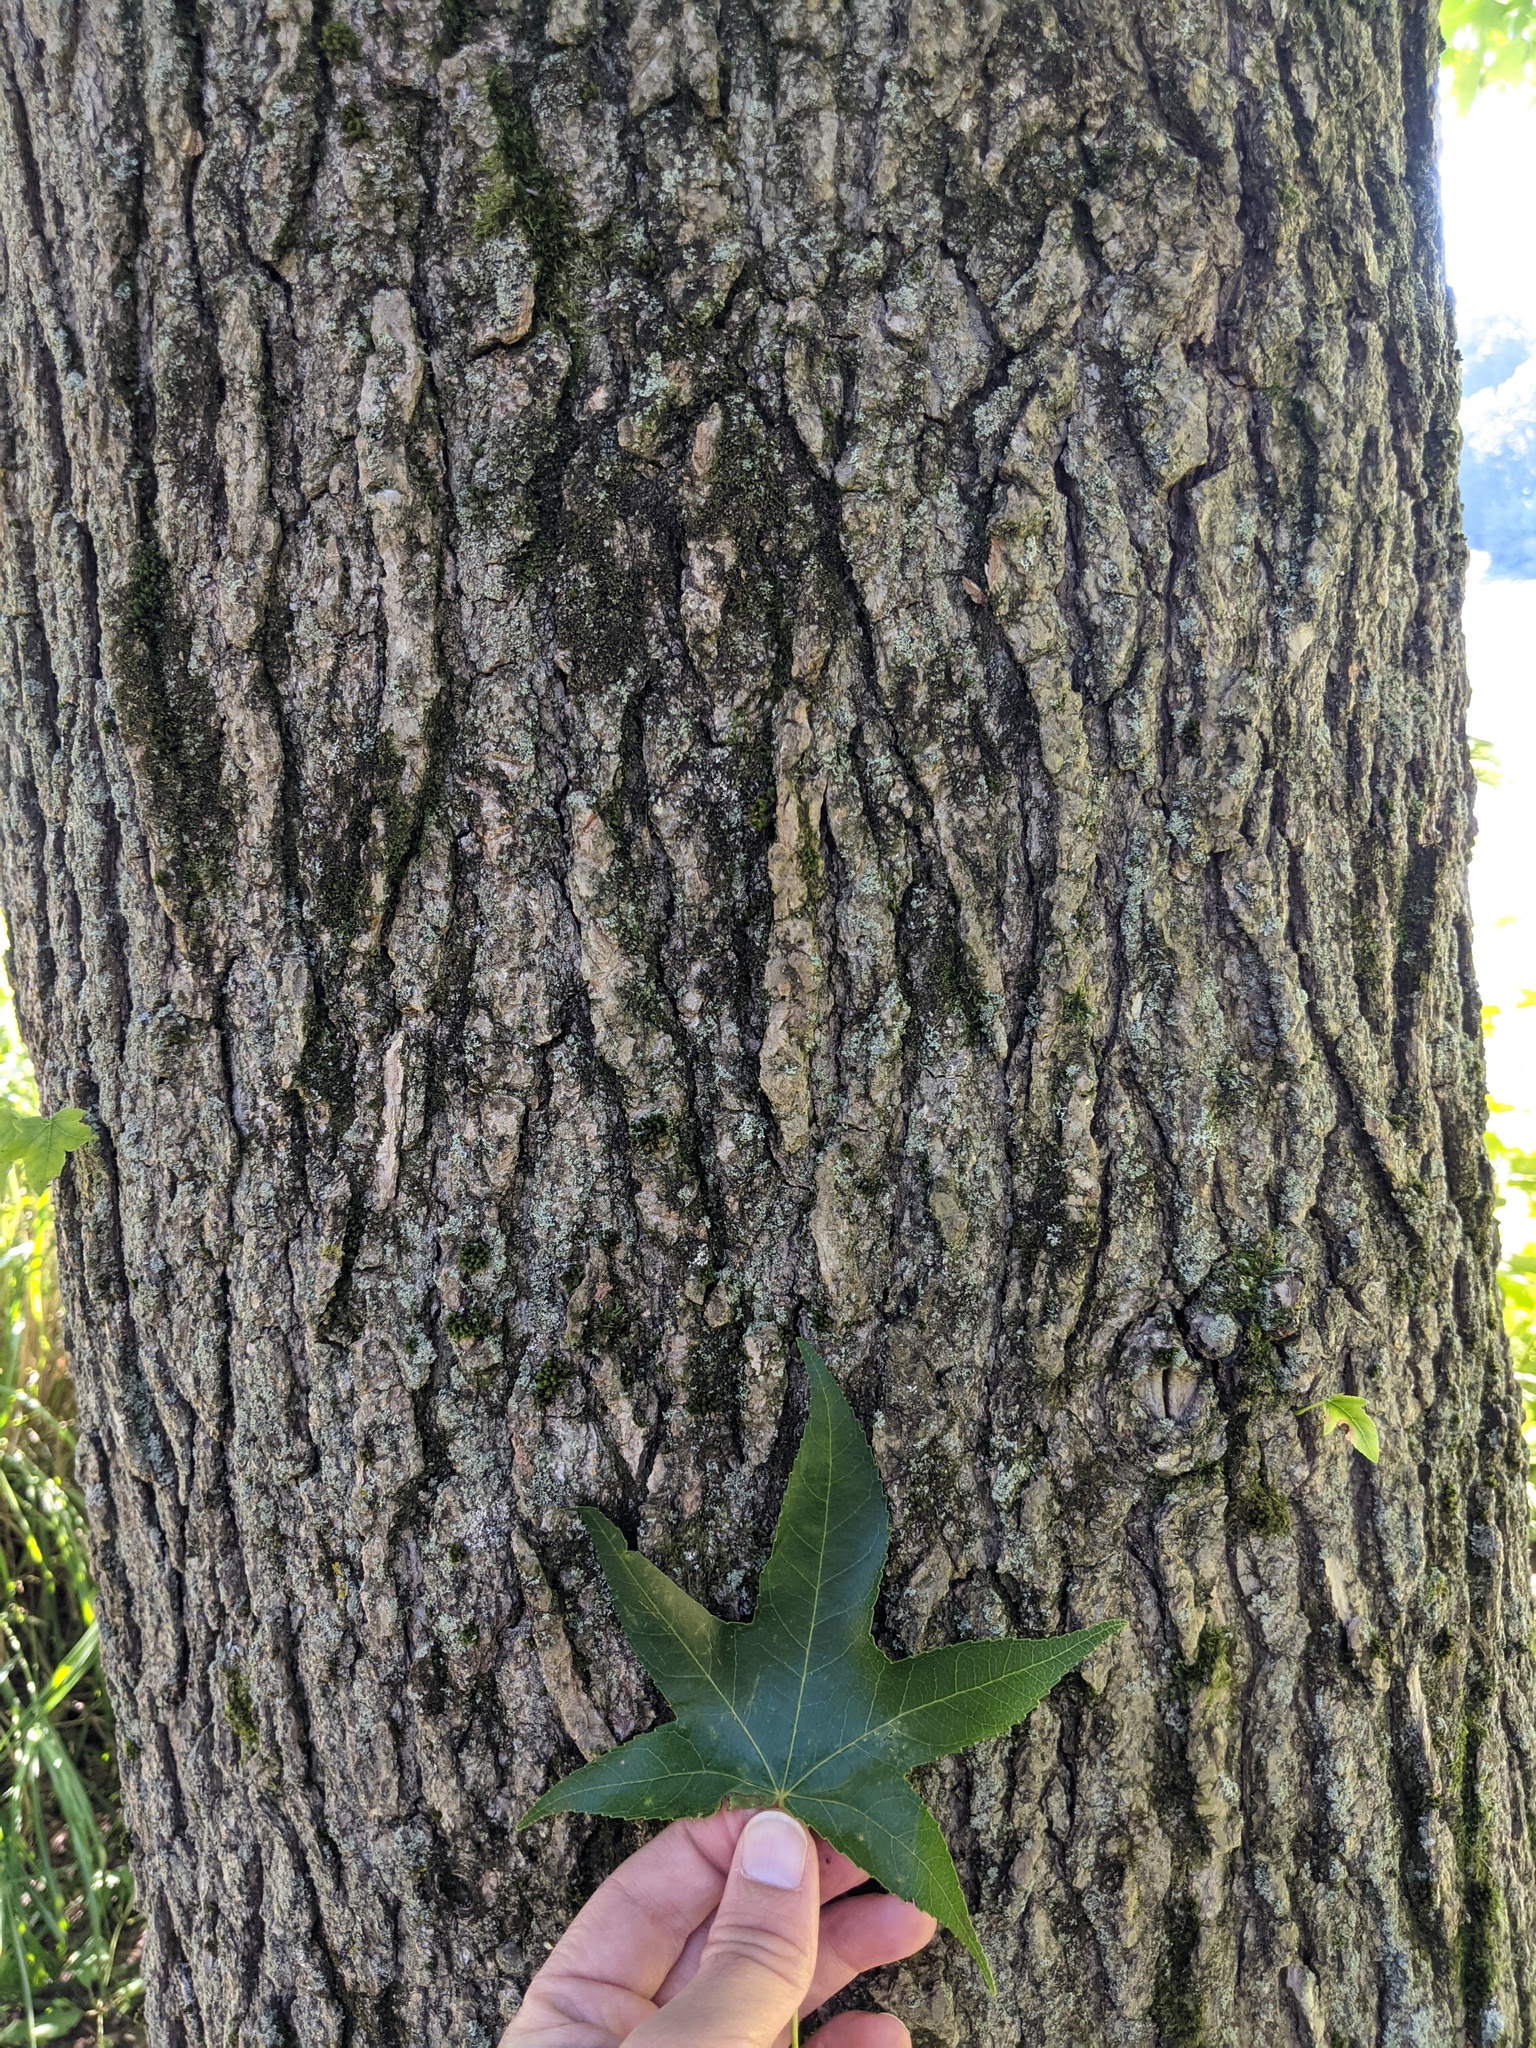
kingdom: Plantae
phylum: Tracheophyta
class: Magnoliopsida
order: Saxifragales
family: Altingiaceae
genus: Liquidambar
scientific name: Liquidambar styraciflua
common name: Sweet gum
